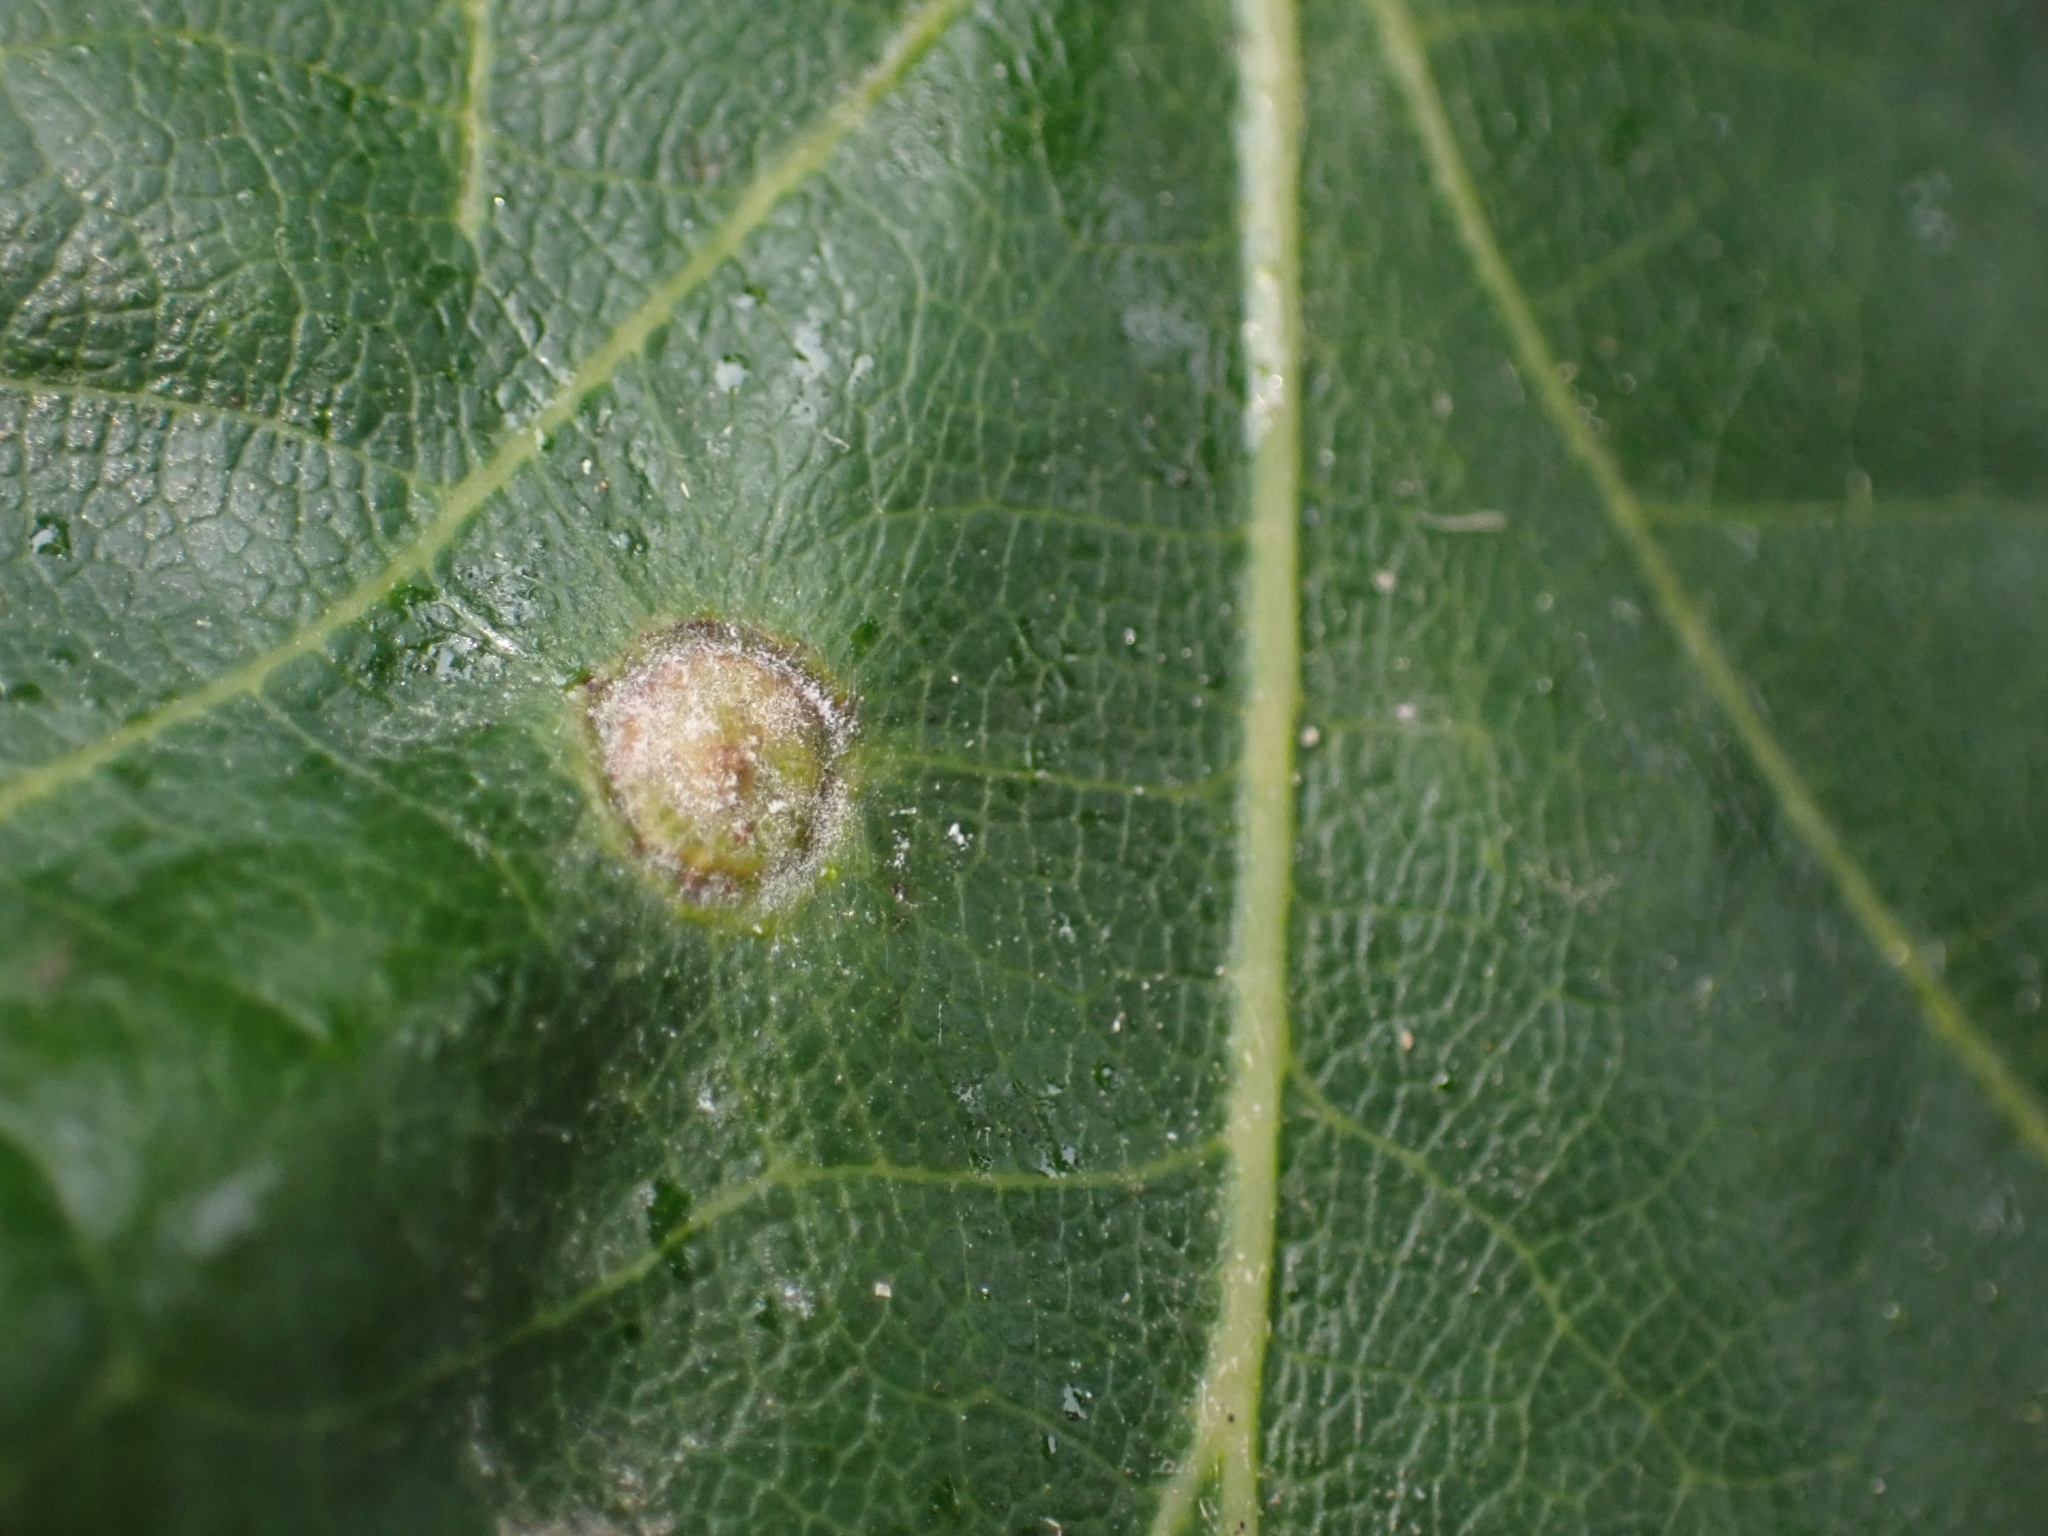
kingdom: Animalia
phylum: Arthropoda
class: Insecta
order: Hymenoptera
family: Cynipidae
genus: Neuroterus
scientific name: Neuroterus numismalis
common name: Silk-button spangle gall
